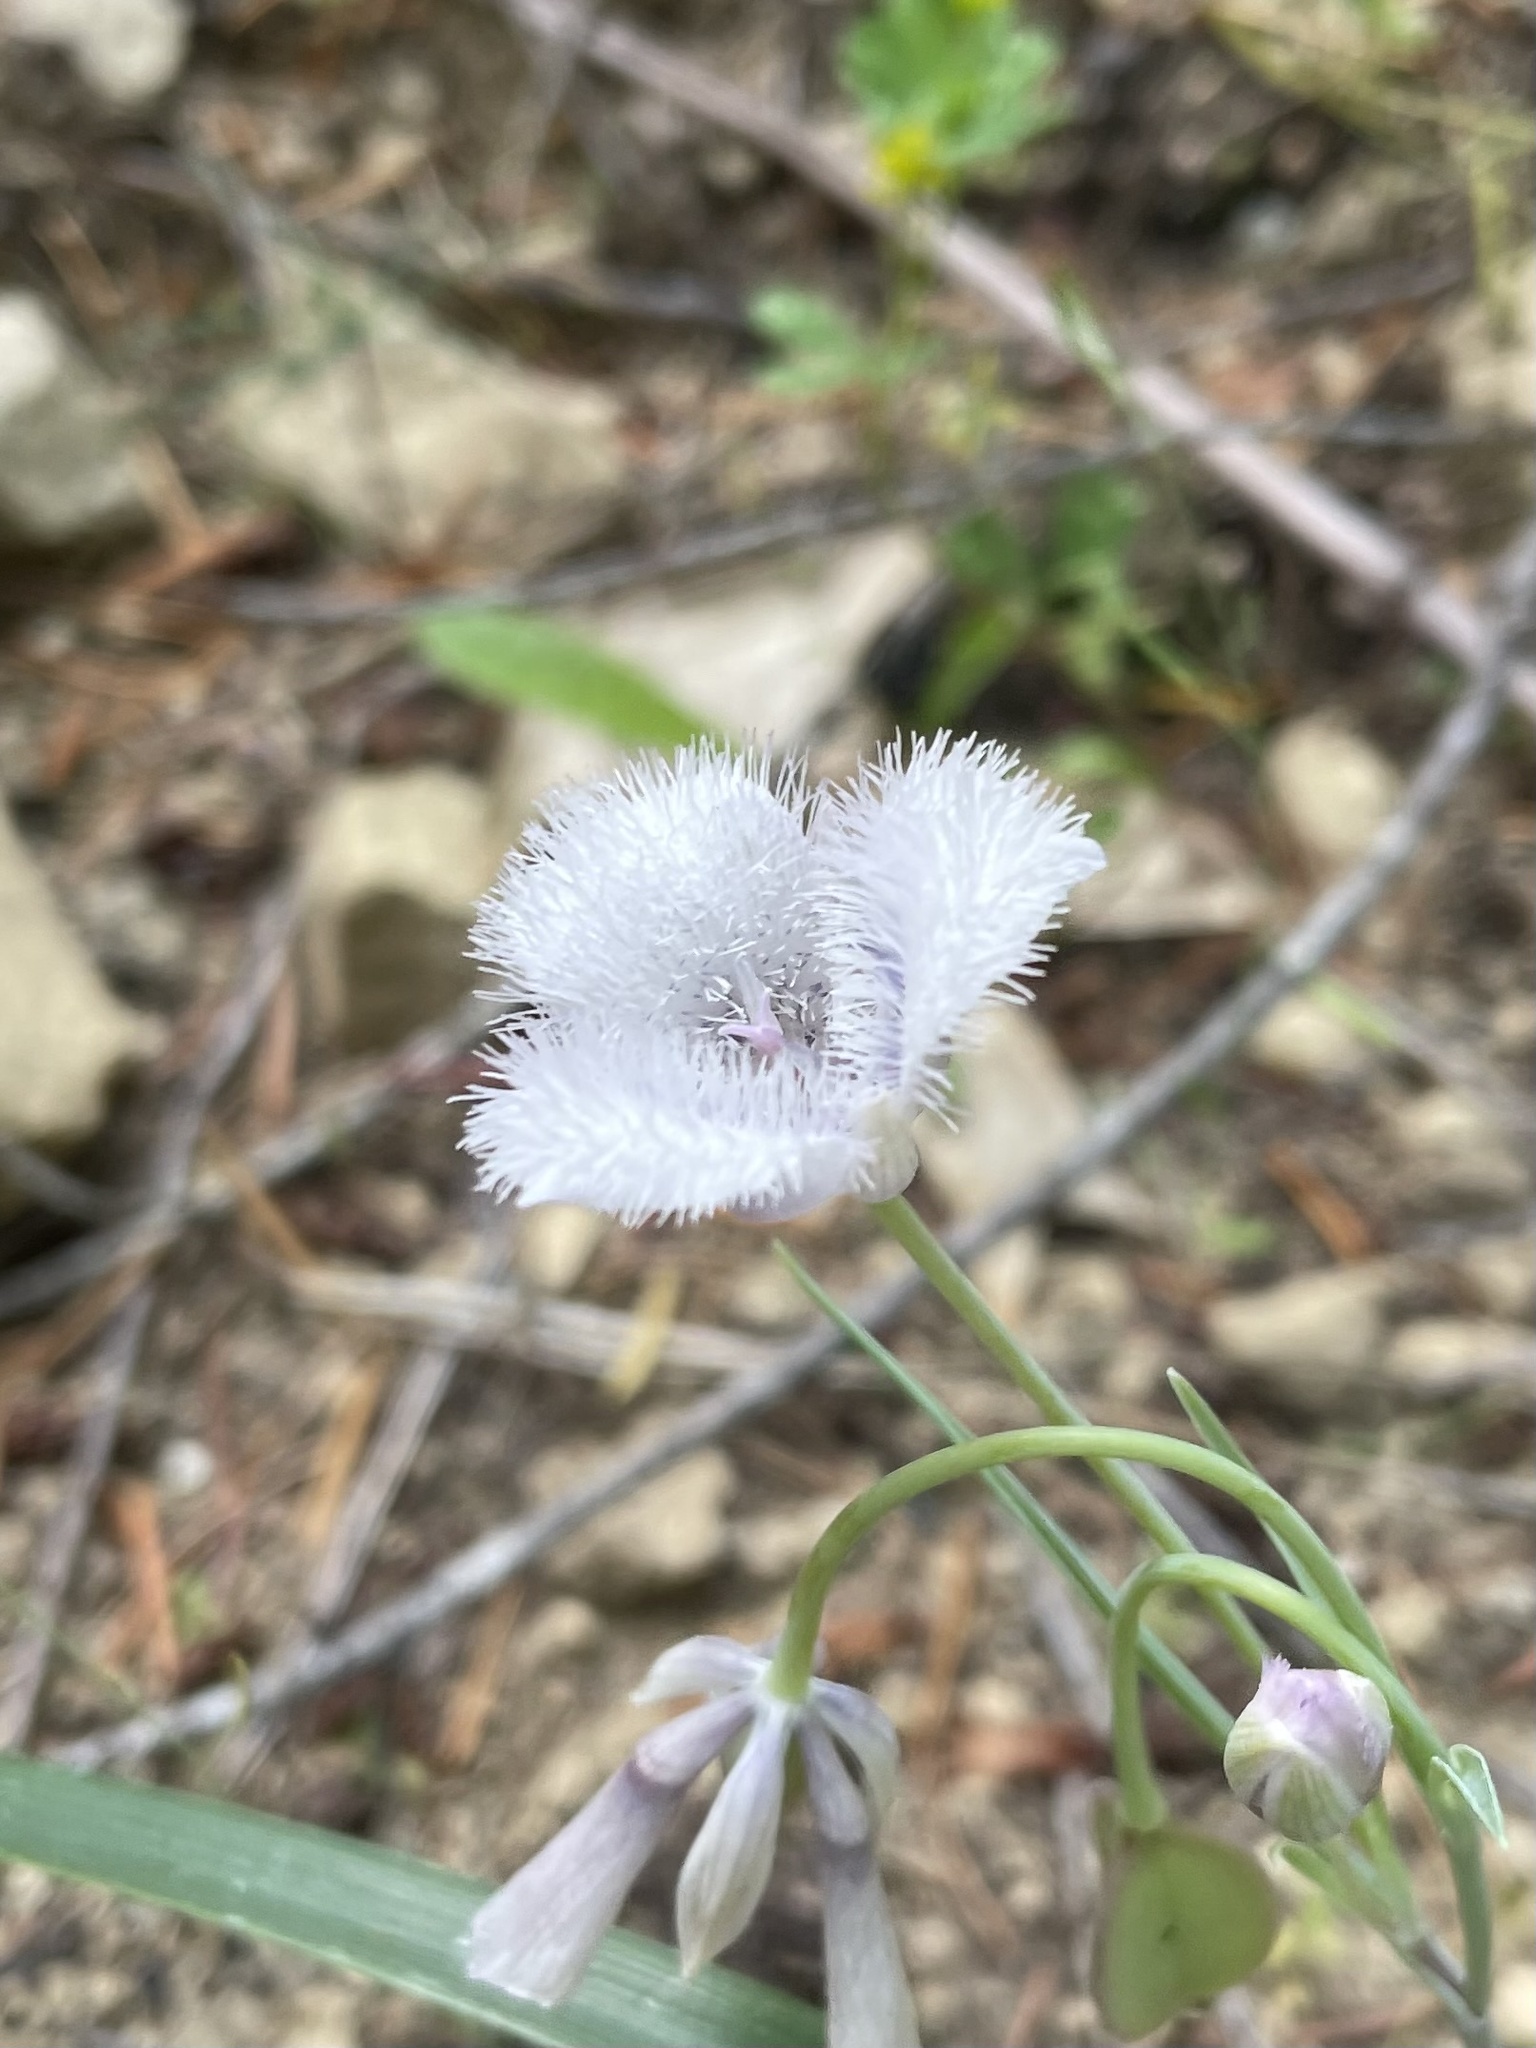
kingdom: Plantae
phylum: Tracheophyta
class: Liliopsida
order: Liliales
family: Liliaceae
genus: Calochortus
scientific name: Calochortus tolmiei
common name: Pussy-ears
